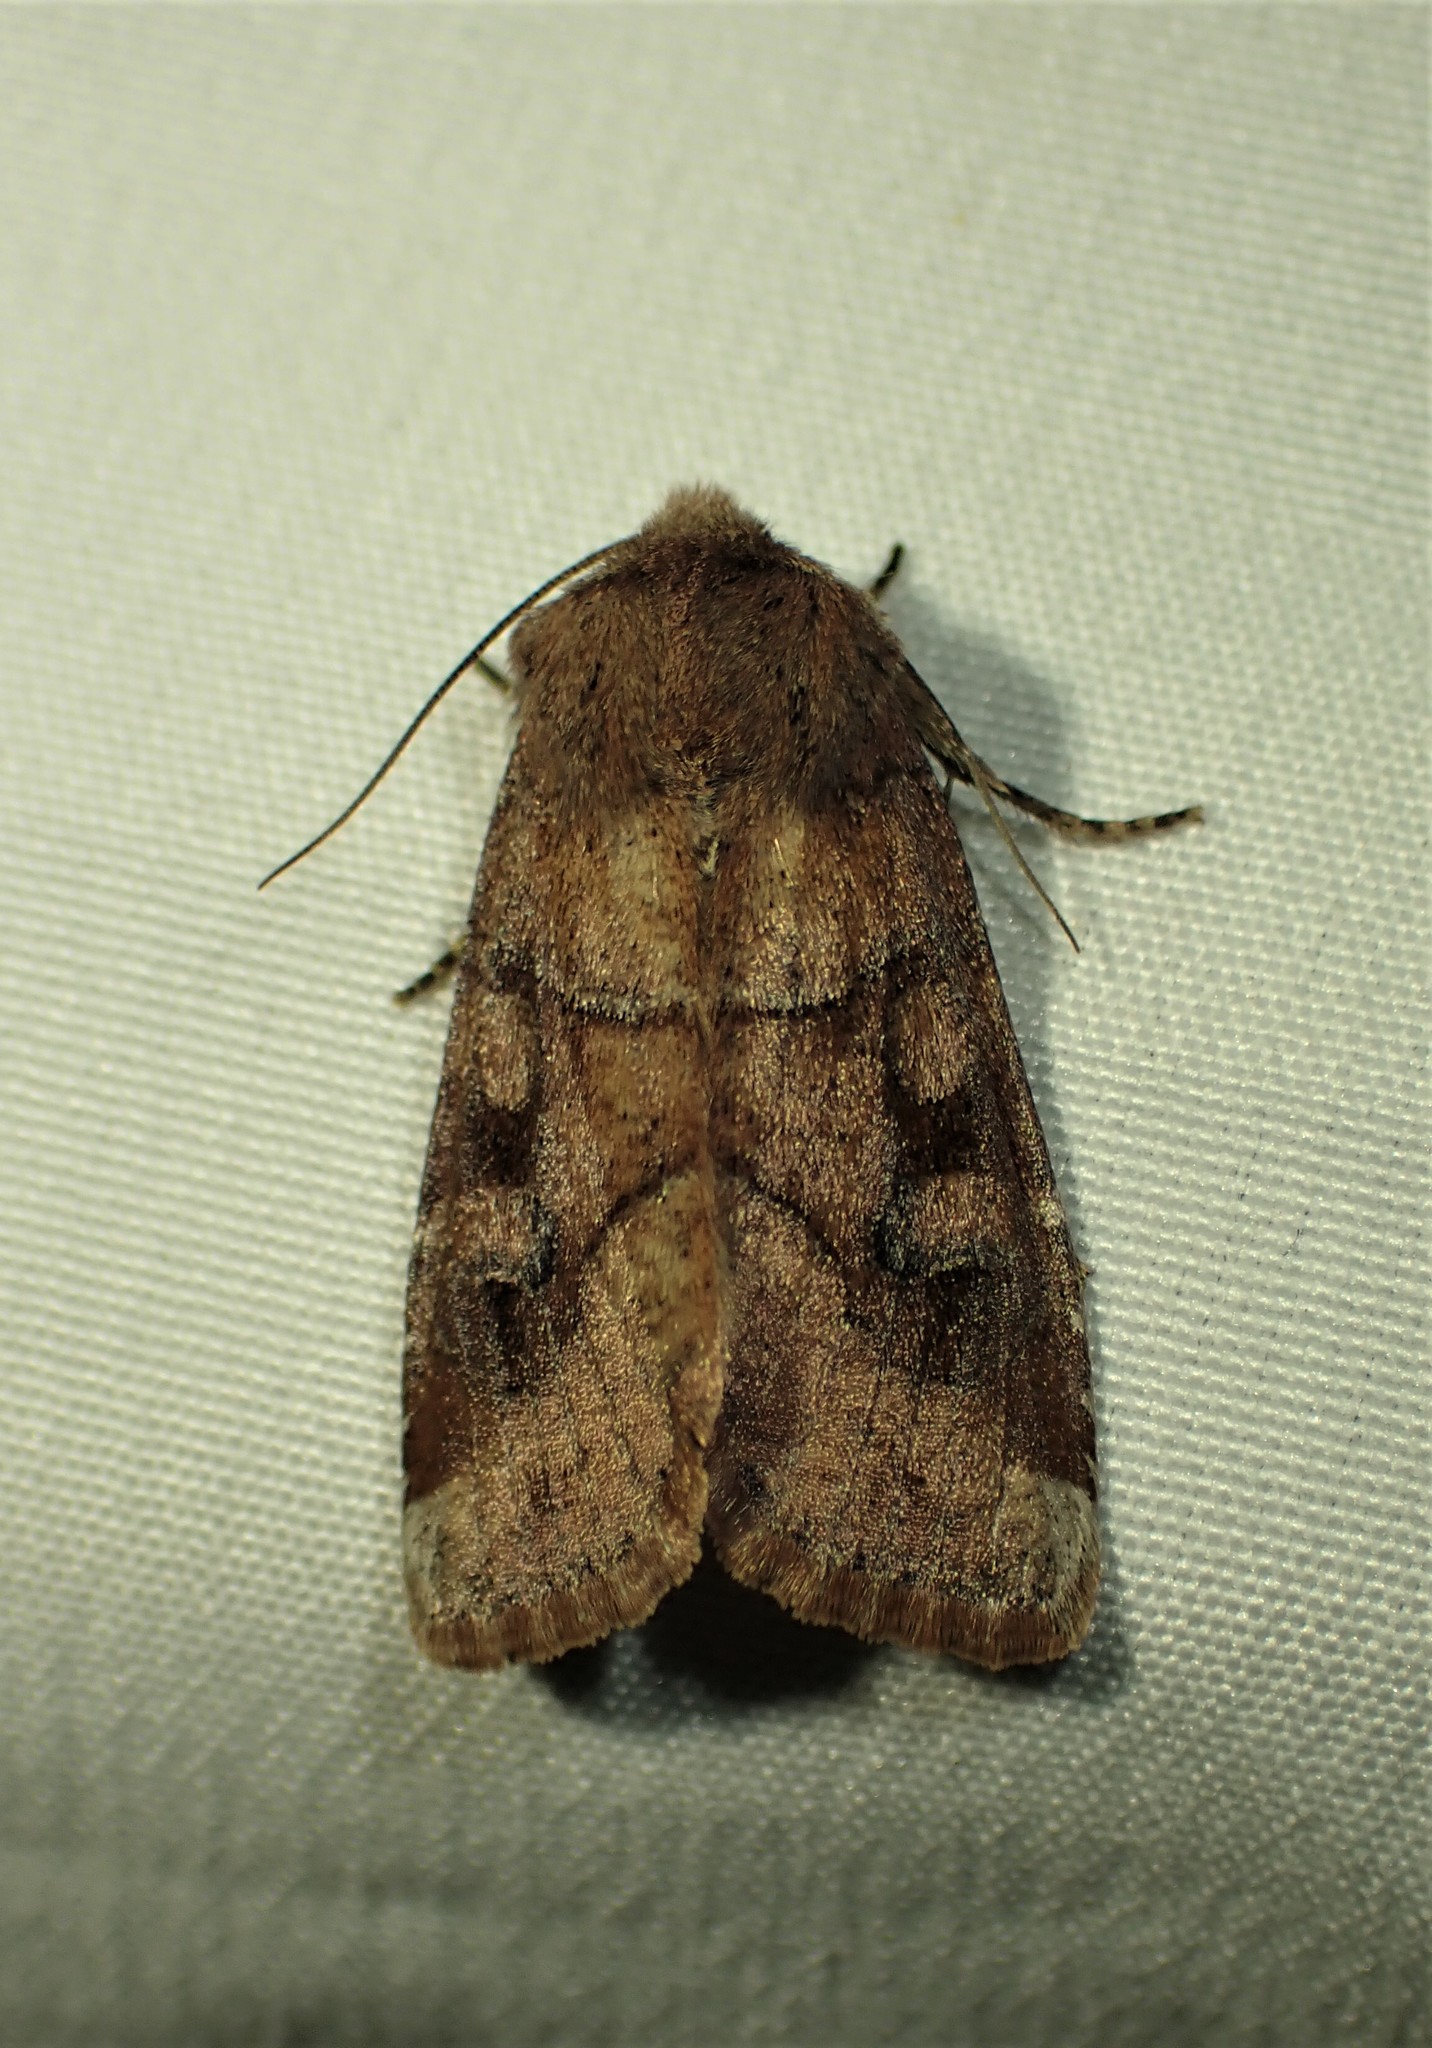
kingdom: Animalia
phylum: Arthropoda
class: Insecta
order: Lepidoptera
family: Noctuidae
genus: Crocigrapha
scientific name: Crocigrapha normani
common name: Norman's quaker
